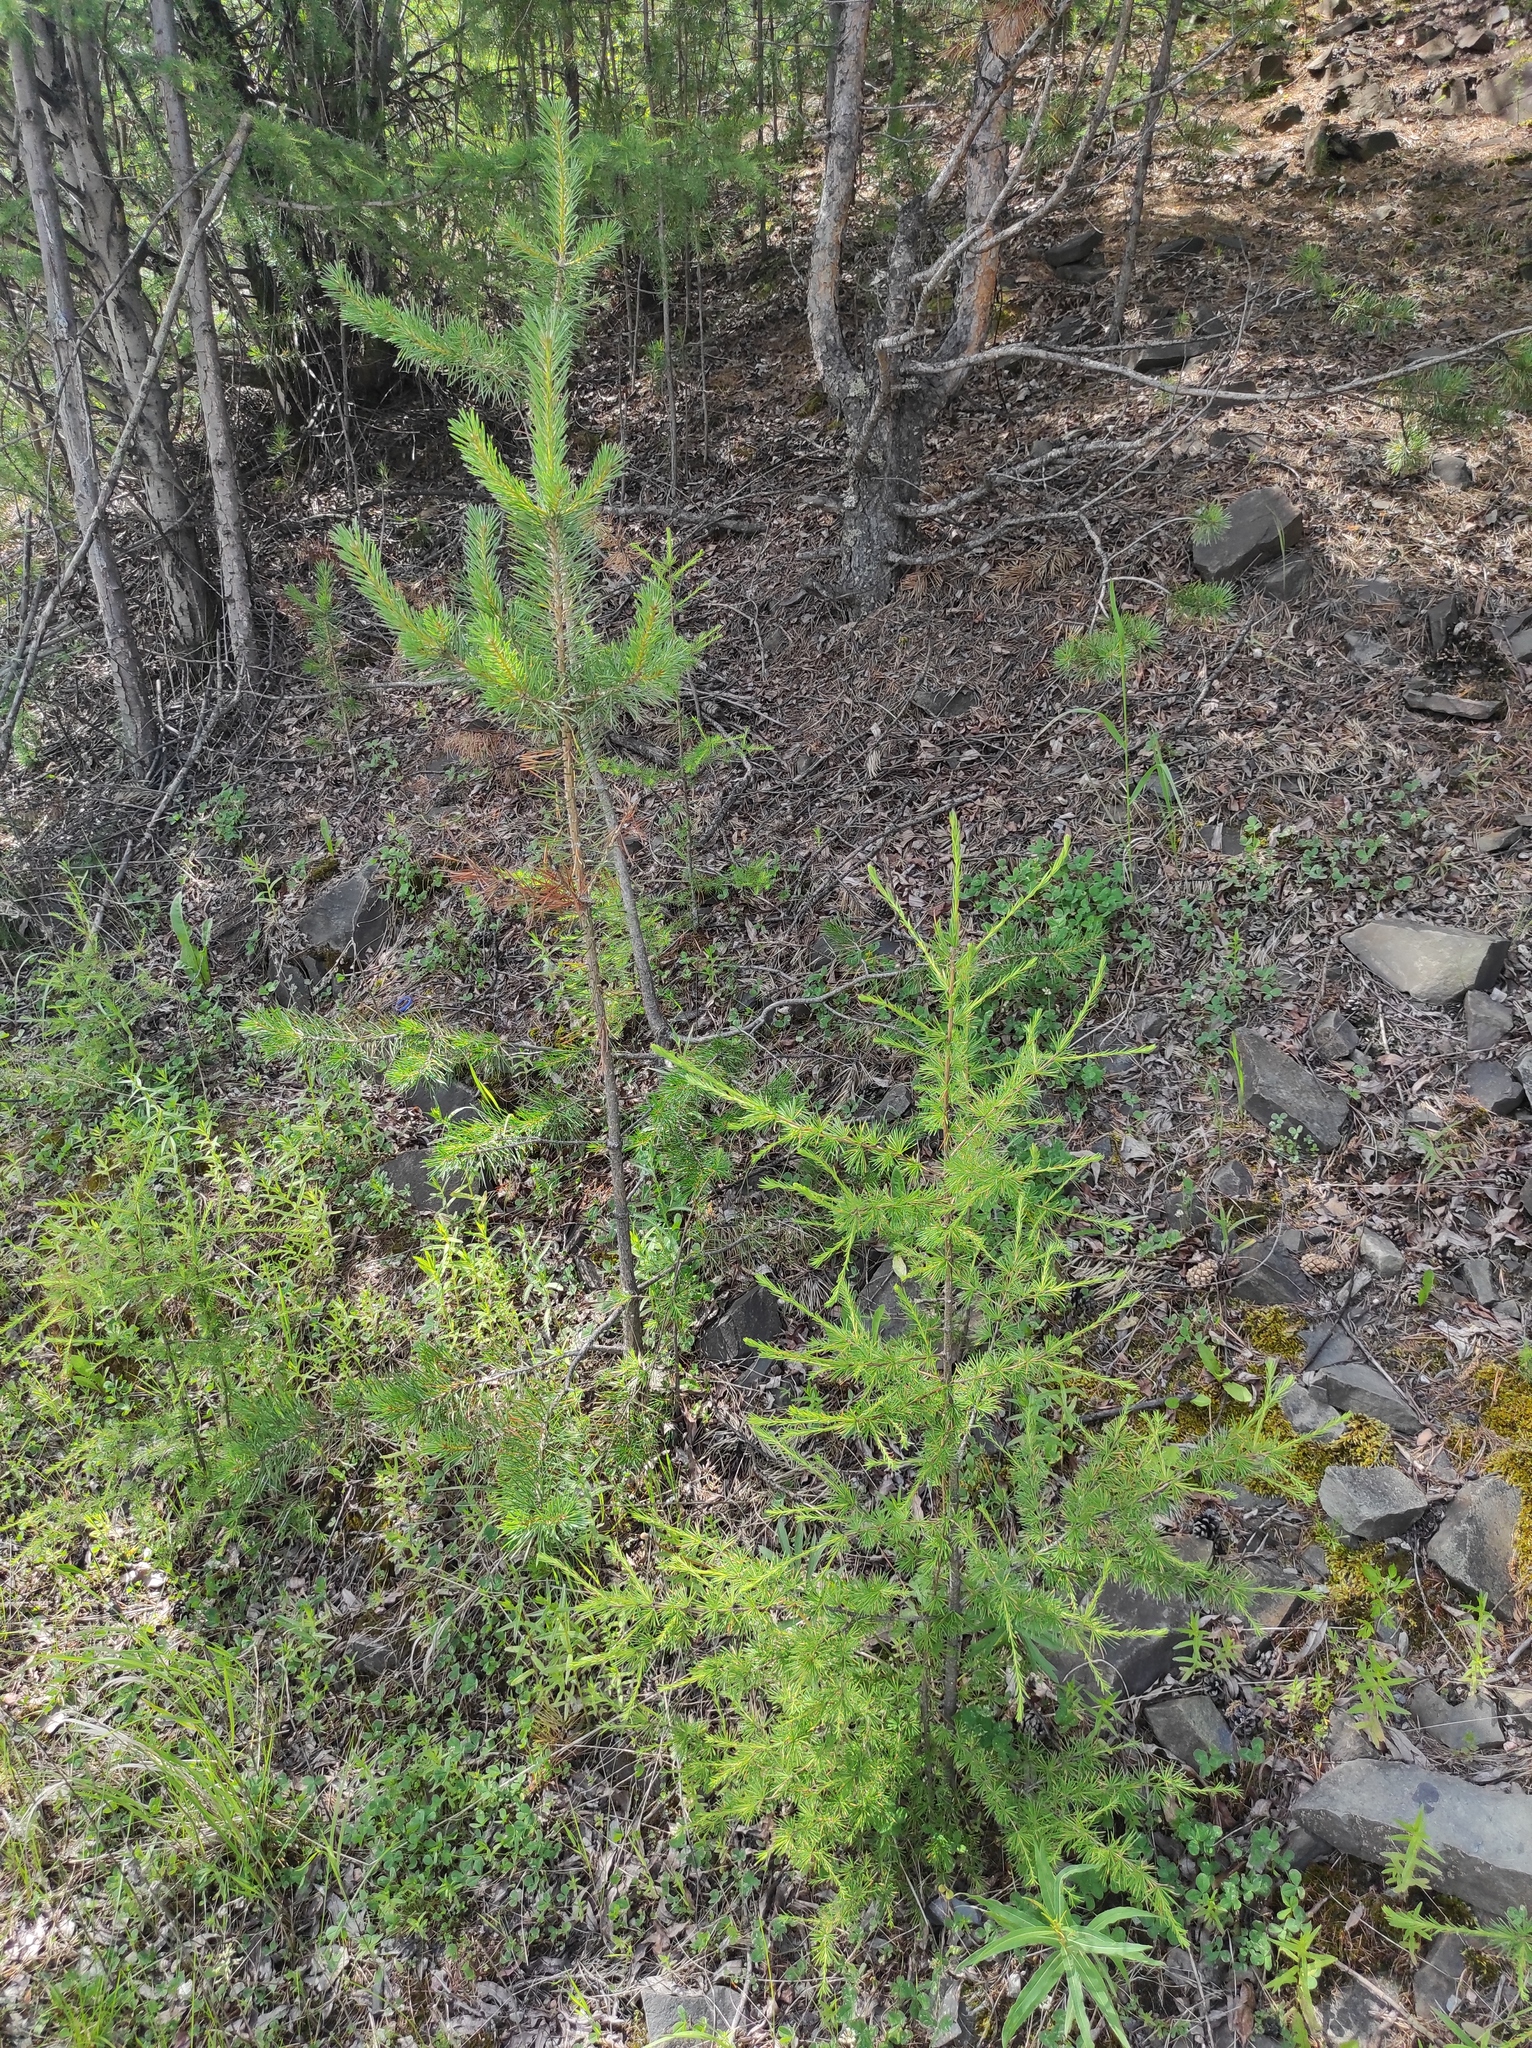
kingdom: Plantae
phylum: Tracheophyta
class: Pinopsida
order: Pinales
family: Pinaceae
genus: Pinus
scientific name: Pinus sylvestris
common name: Scots pine
